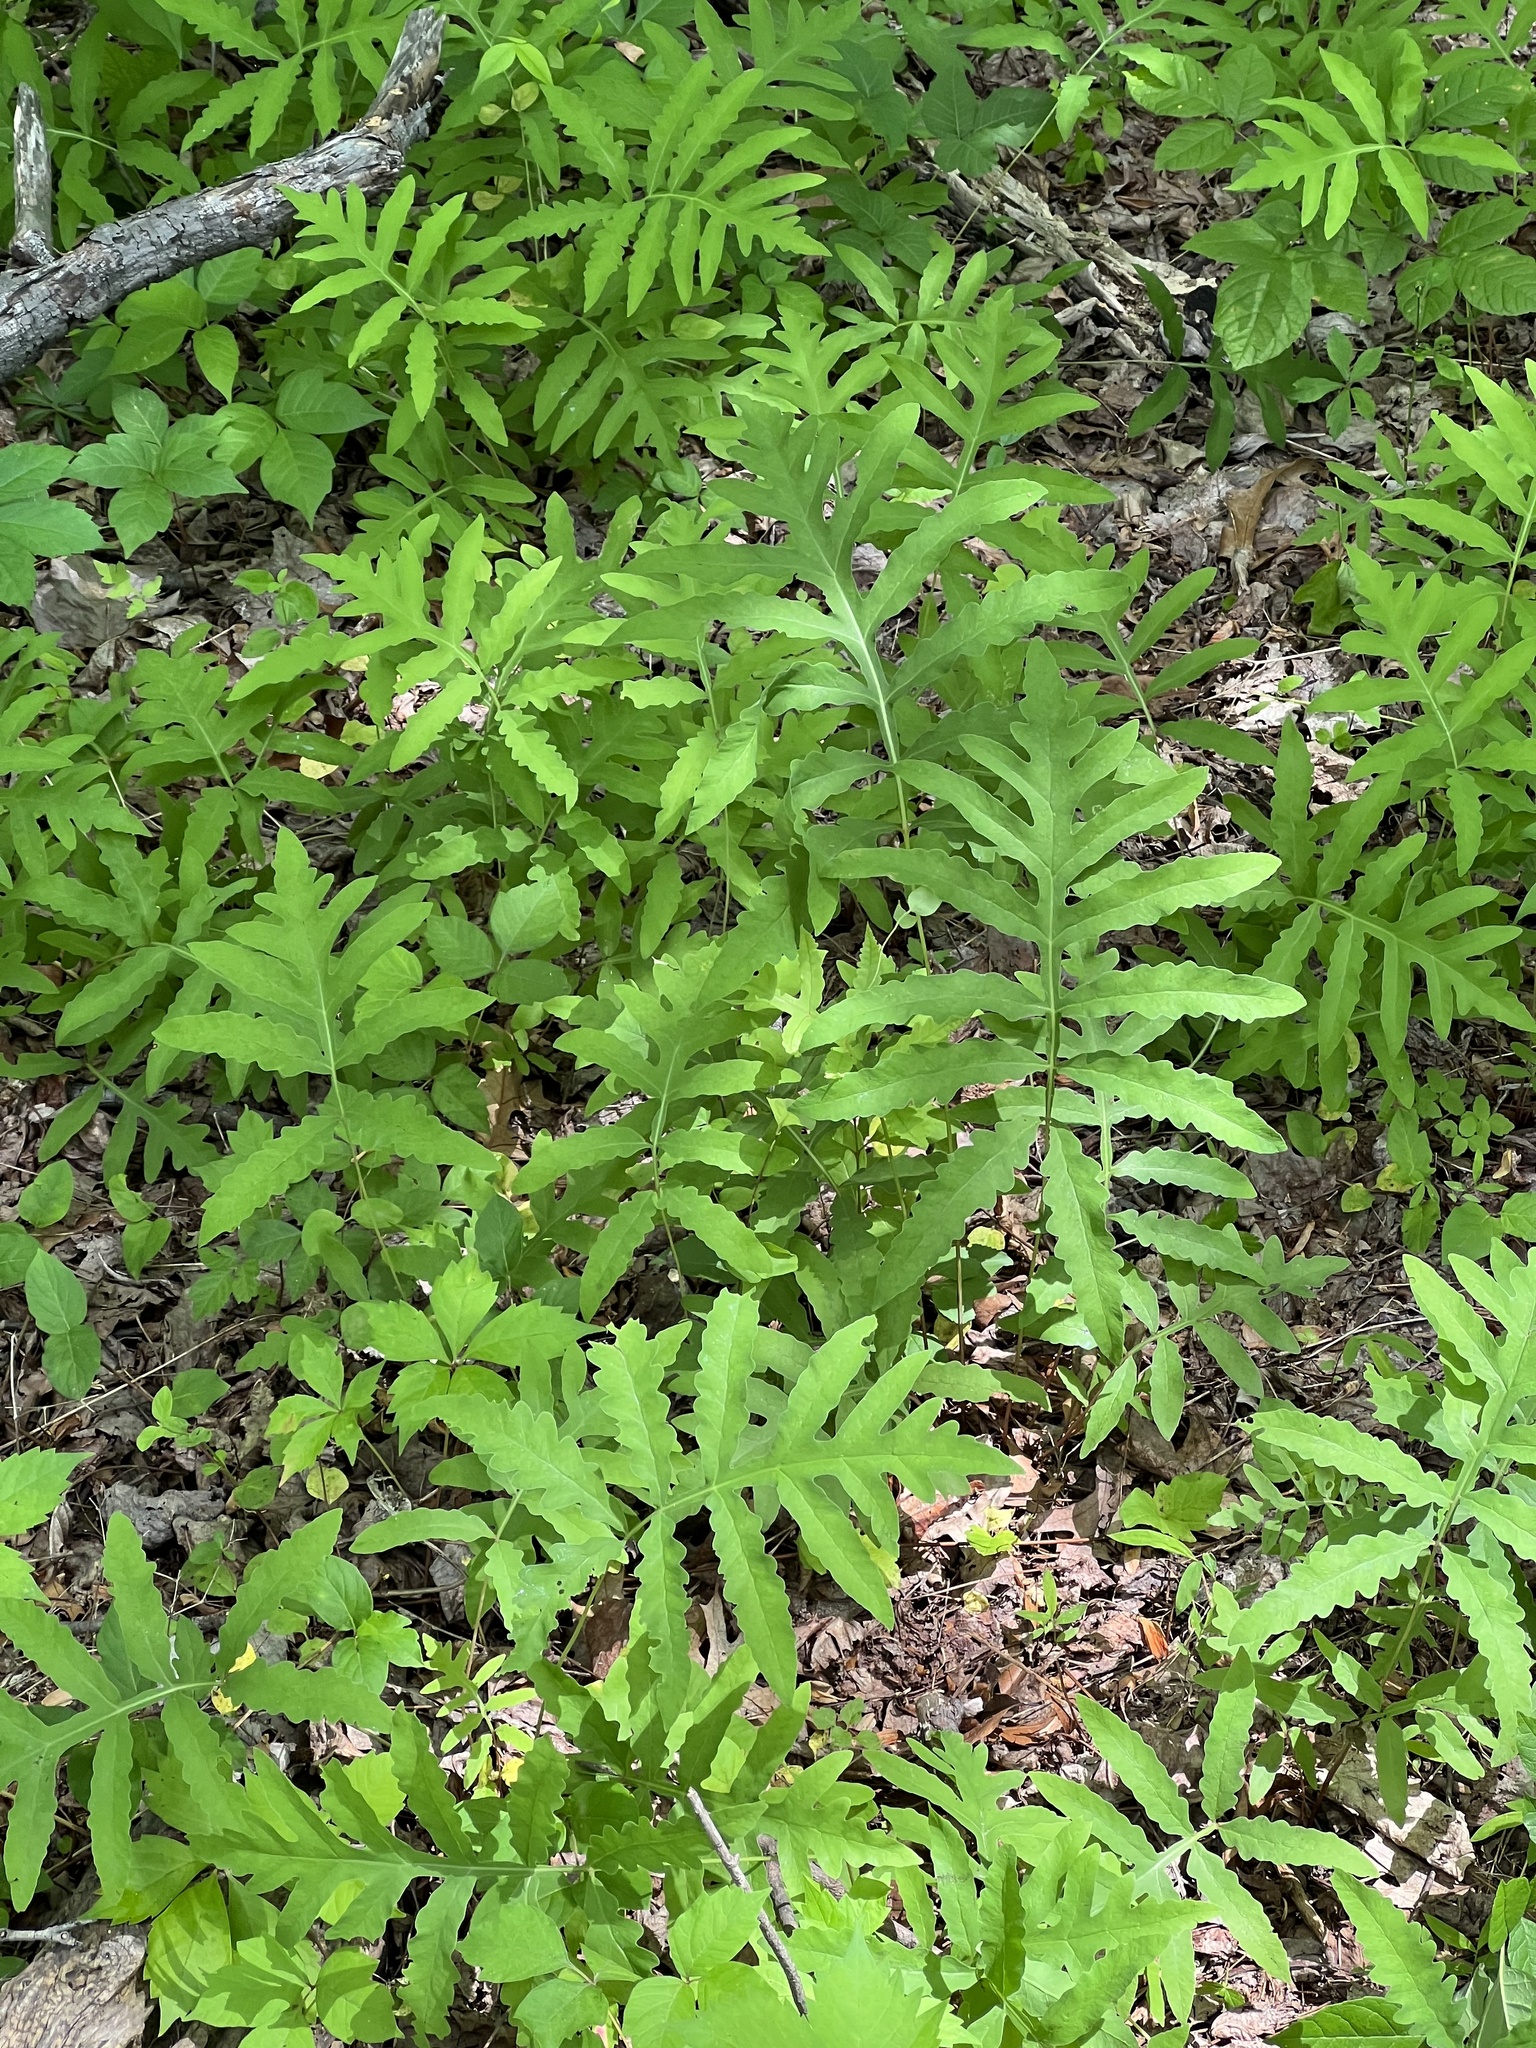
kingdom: Plantae
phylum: Tracheophyta
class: Polypodiopsida
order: Polypodiales
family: Onocleaceae
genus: Onoclea
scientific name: Onoclea sensibilis
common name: Sensitive fern
